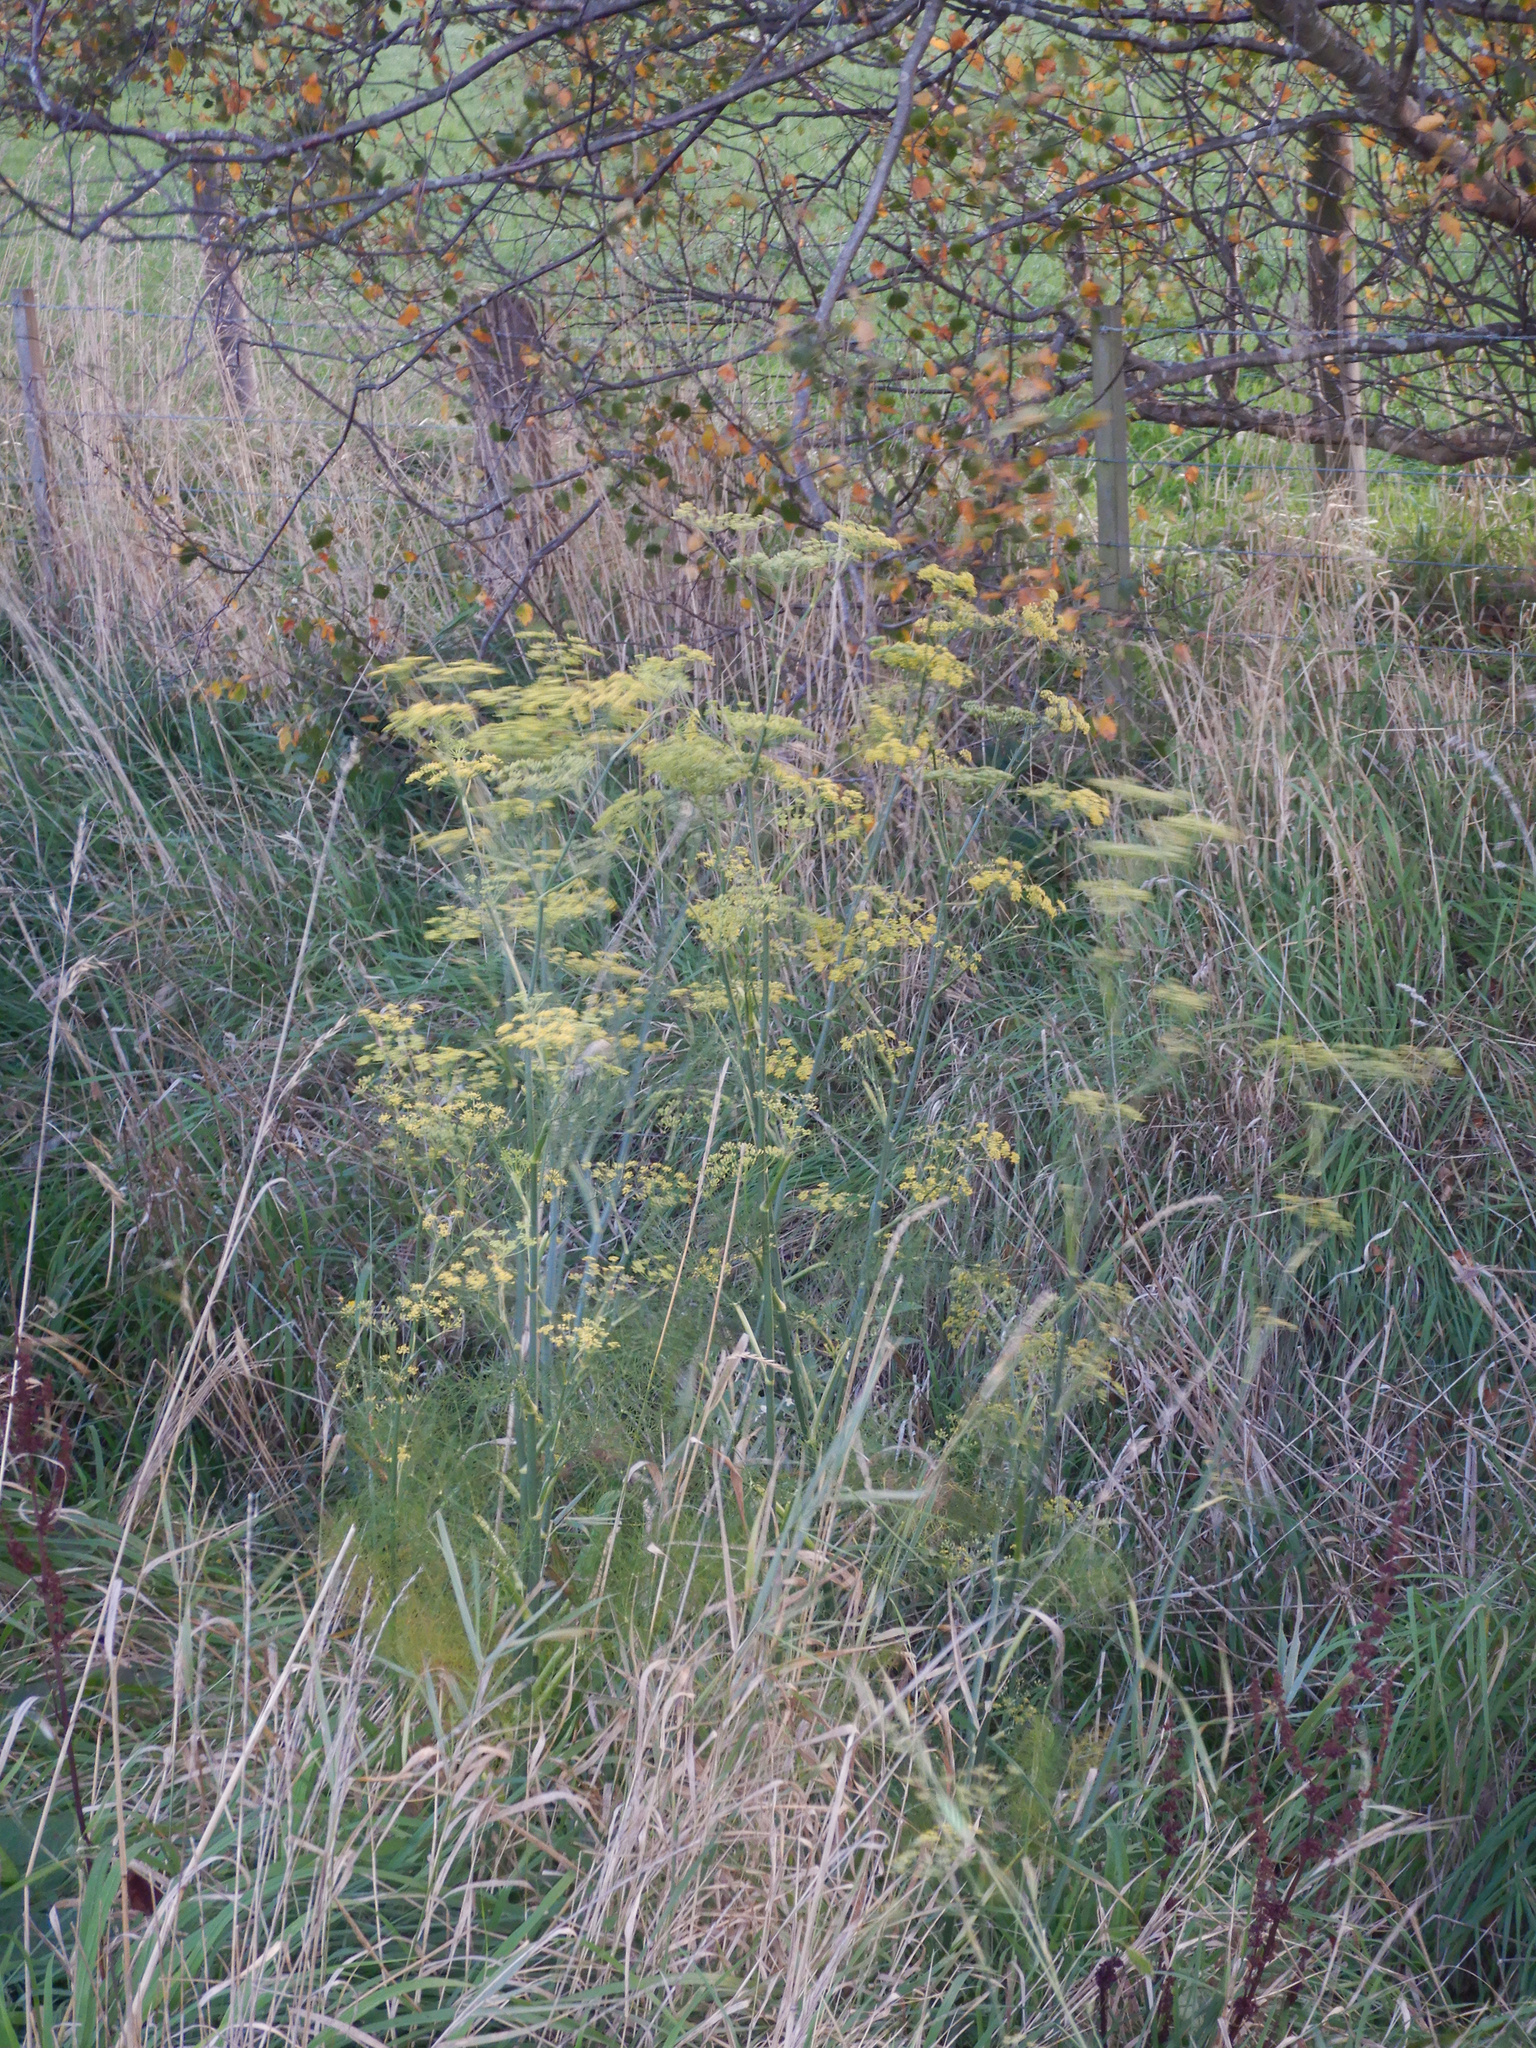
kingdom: Plantae
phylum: Tracheophyta
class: Magnoliopsida
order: Apiales
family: Apiaceae
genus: Foeniculum
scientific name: Foeniculum vulgare
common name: Fennel
